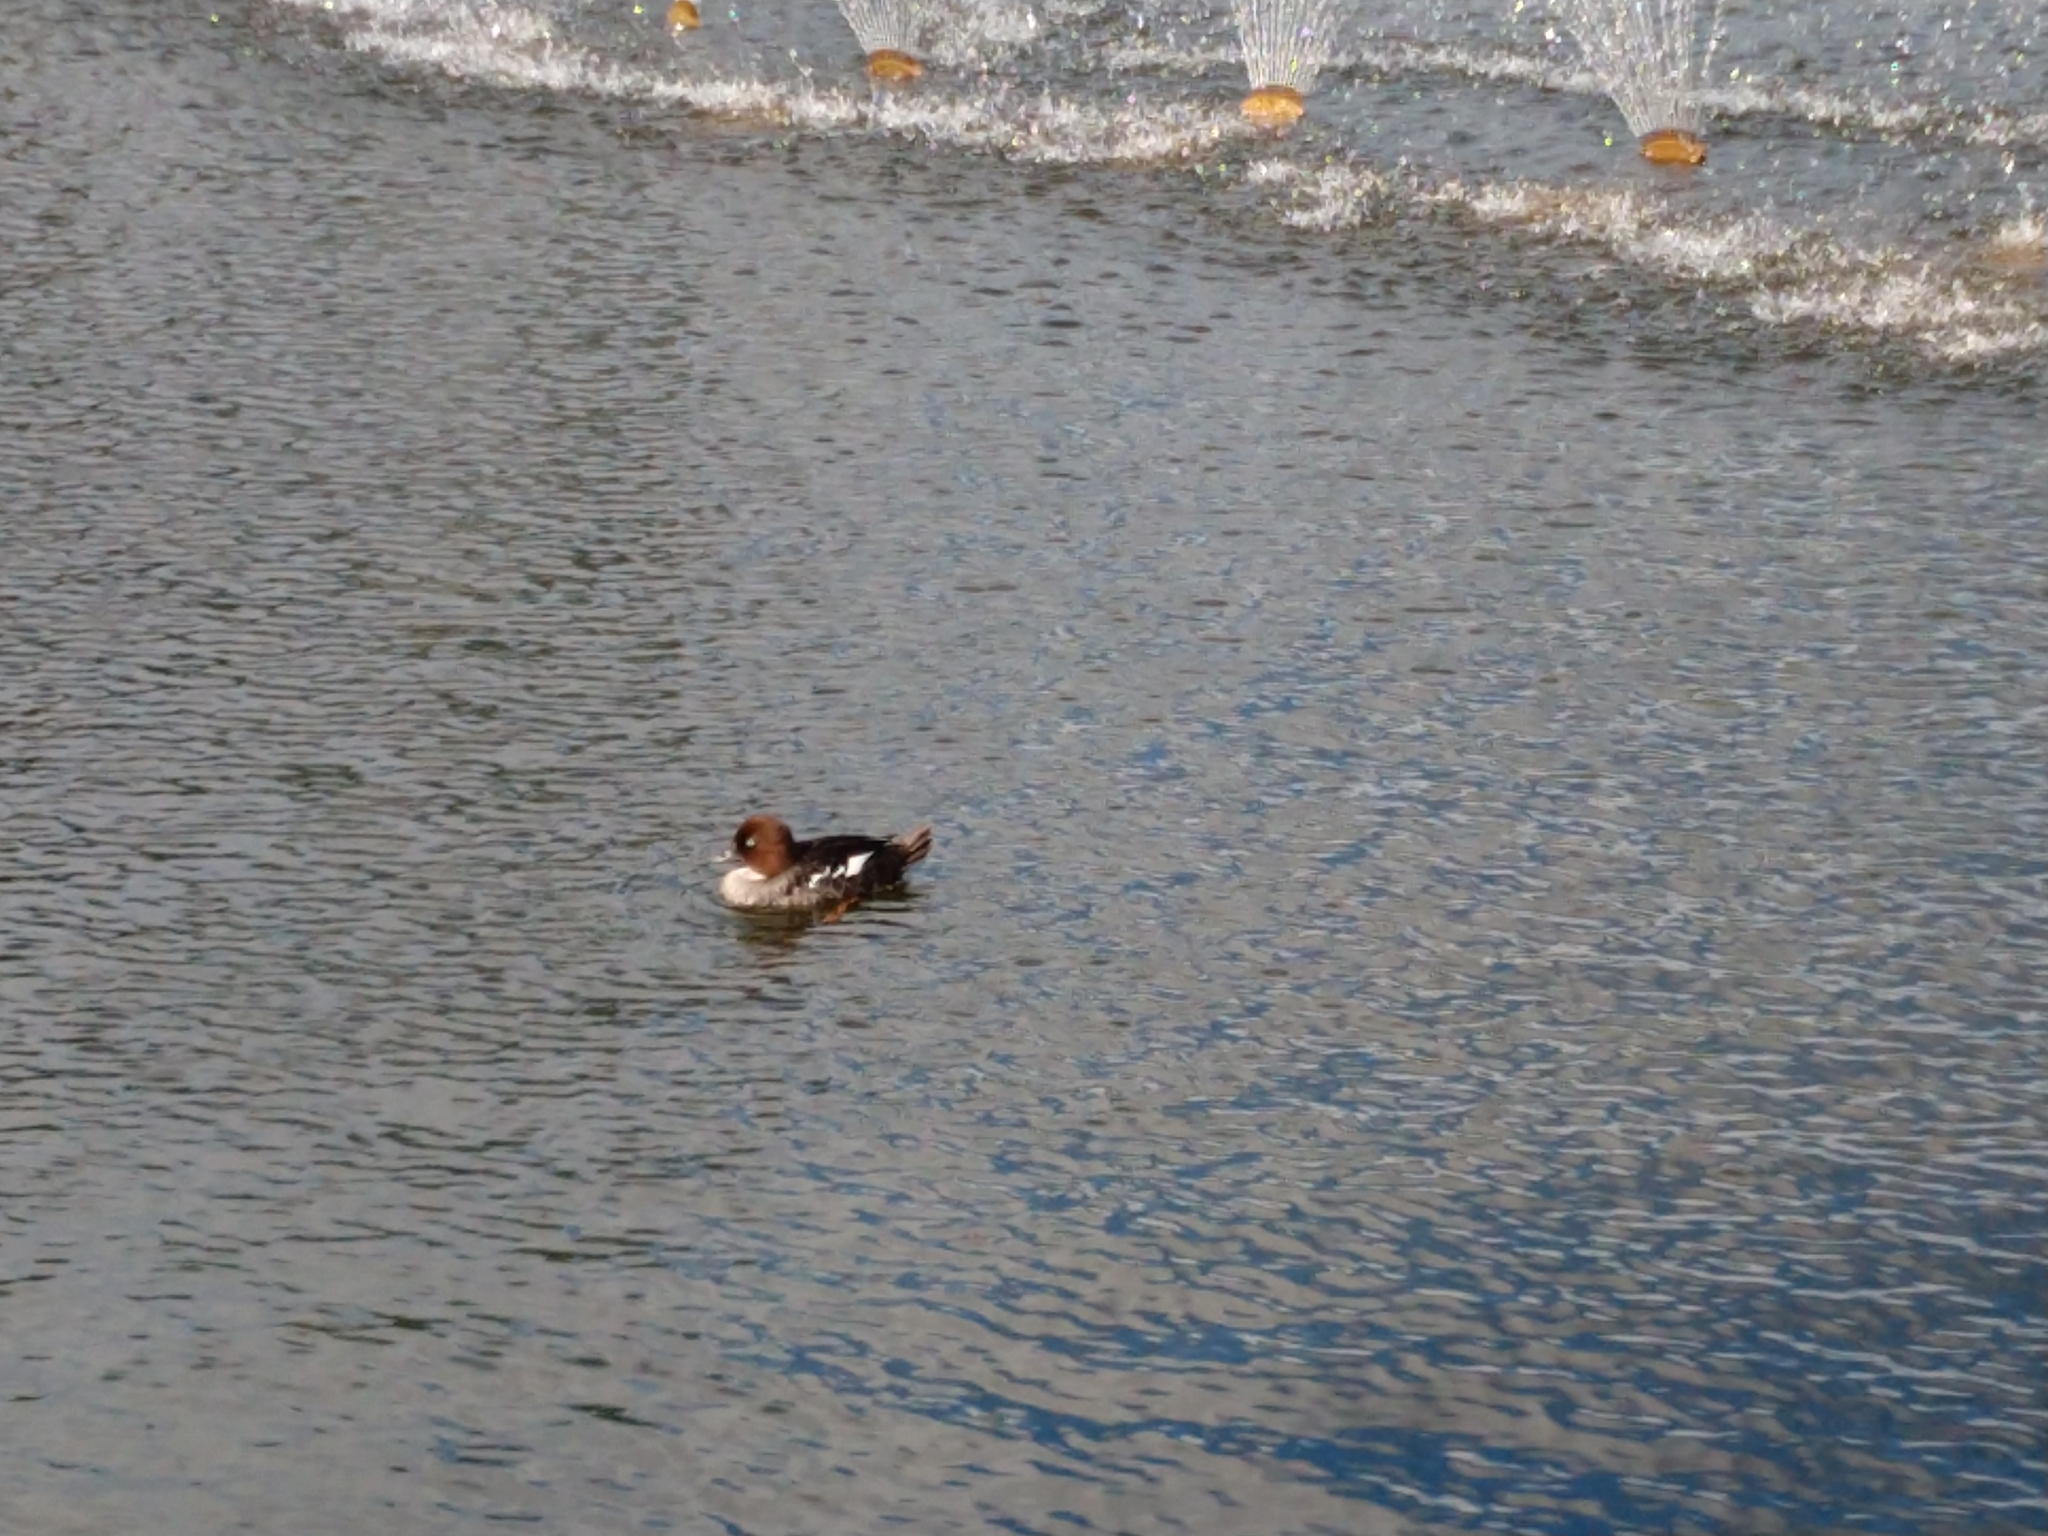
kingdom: Animalia
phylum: Chordata
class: Aves
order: Anseriformes
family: Anatidae
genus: Bucephala
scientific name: Bucephala clangula
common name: Common goldeneye
